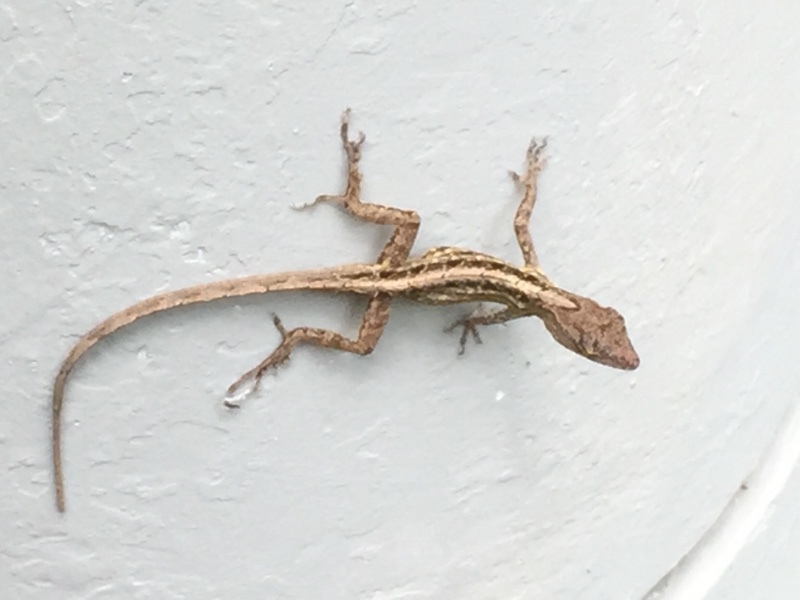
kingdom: Animalia
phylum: Chordata
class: Squamata
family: Dactyloidae
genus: Anolis
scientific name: Anolis sagrei
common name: Brown anole
